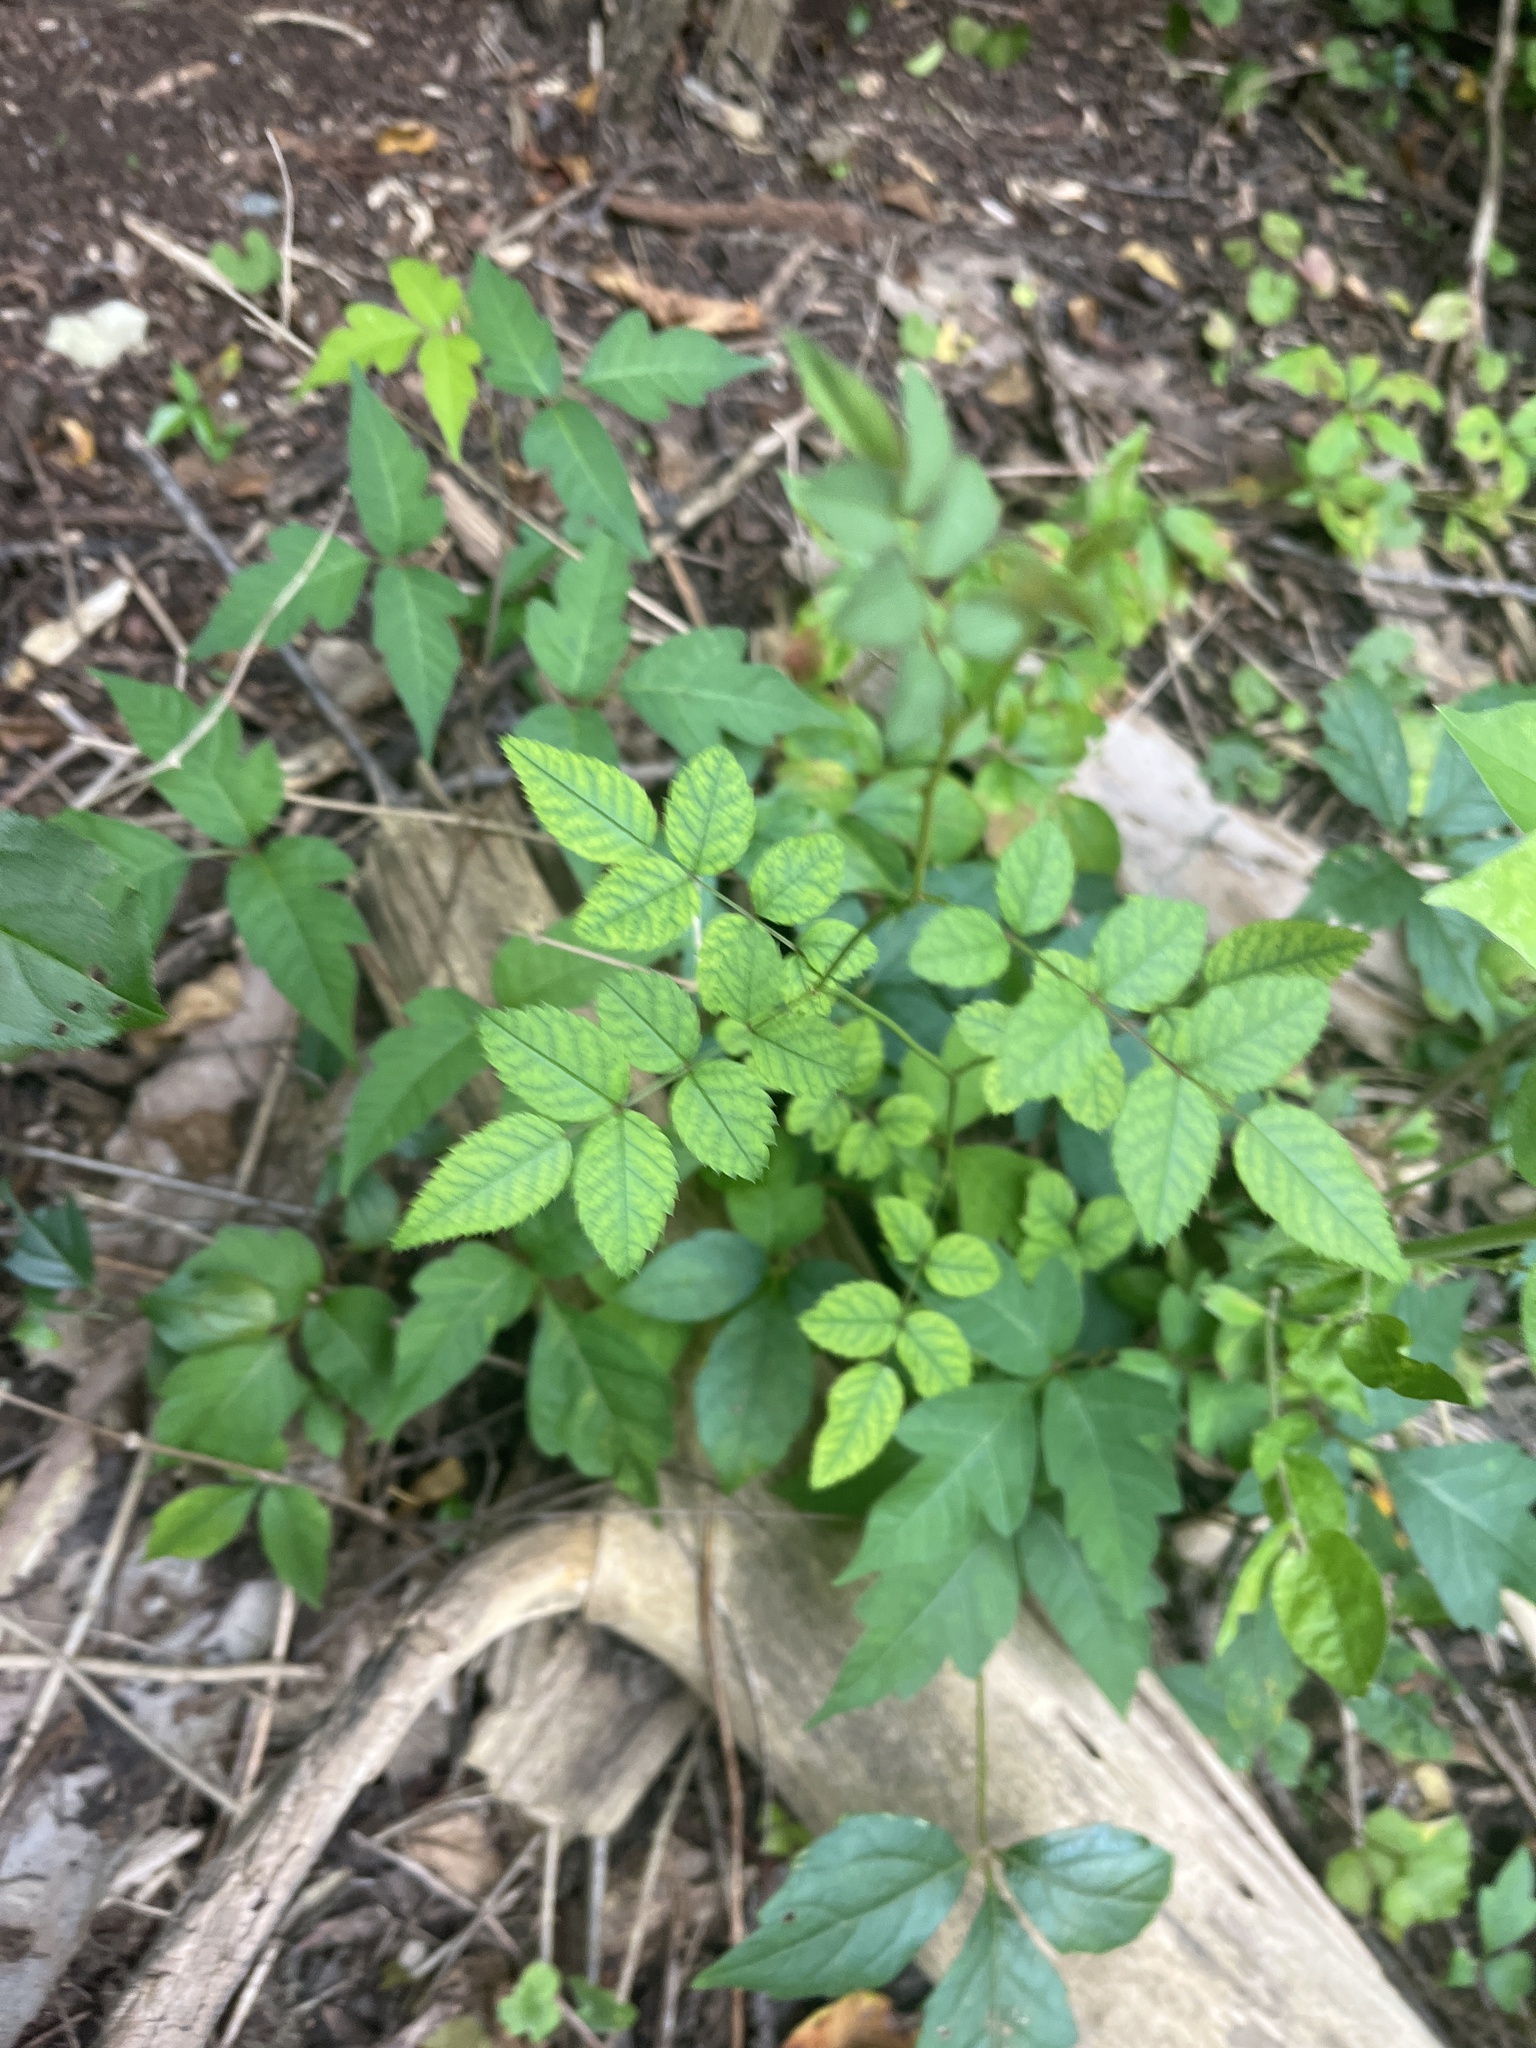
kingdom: Plantae
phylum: Tracheophyta
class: Magnoliopsida
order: Rosales
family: Rosaceae
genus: Rosa
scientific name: Rosa multiflora
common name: Multiflora rose
